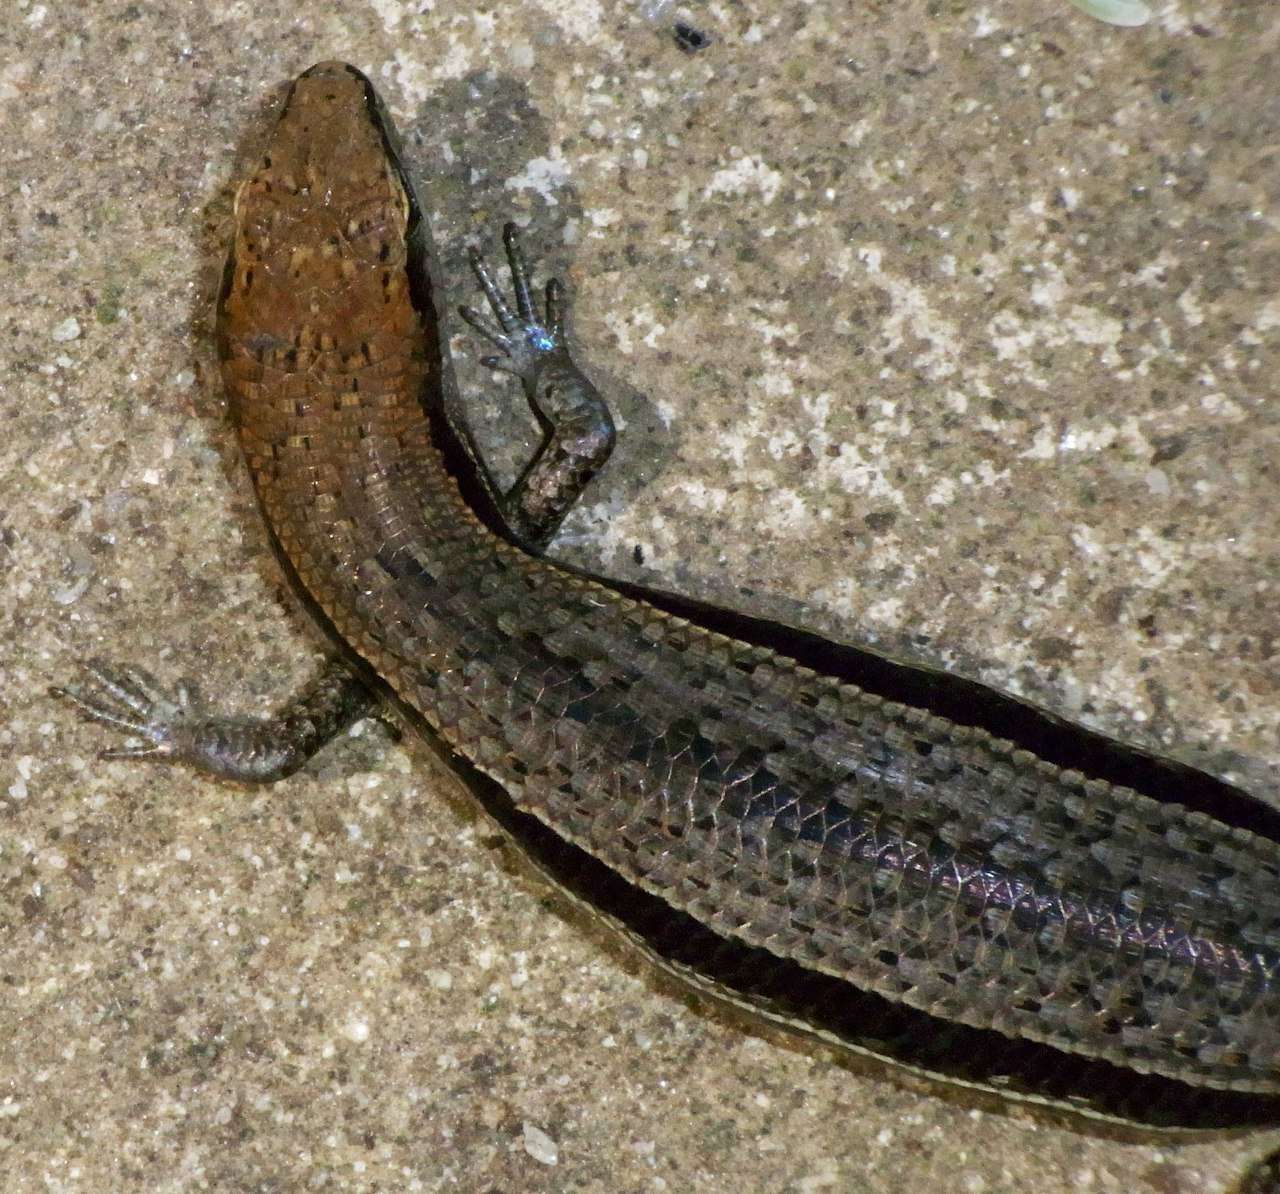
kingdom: Animalia
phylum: Chordata
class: Squamata
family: Scincidae
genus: Lampropholis
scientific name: Lampropholis guichenoti
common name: Garden skink
